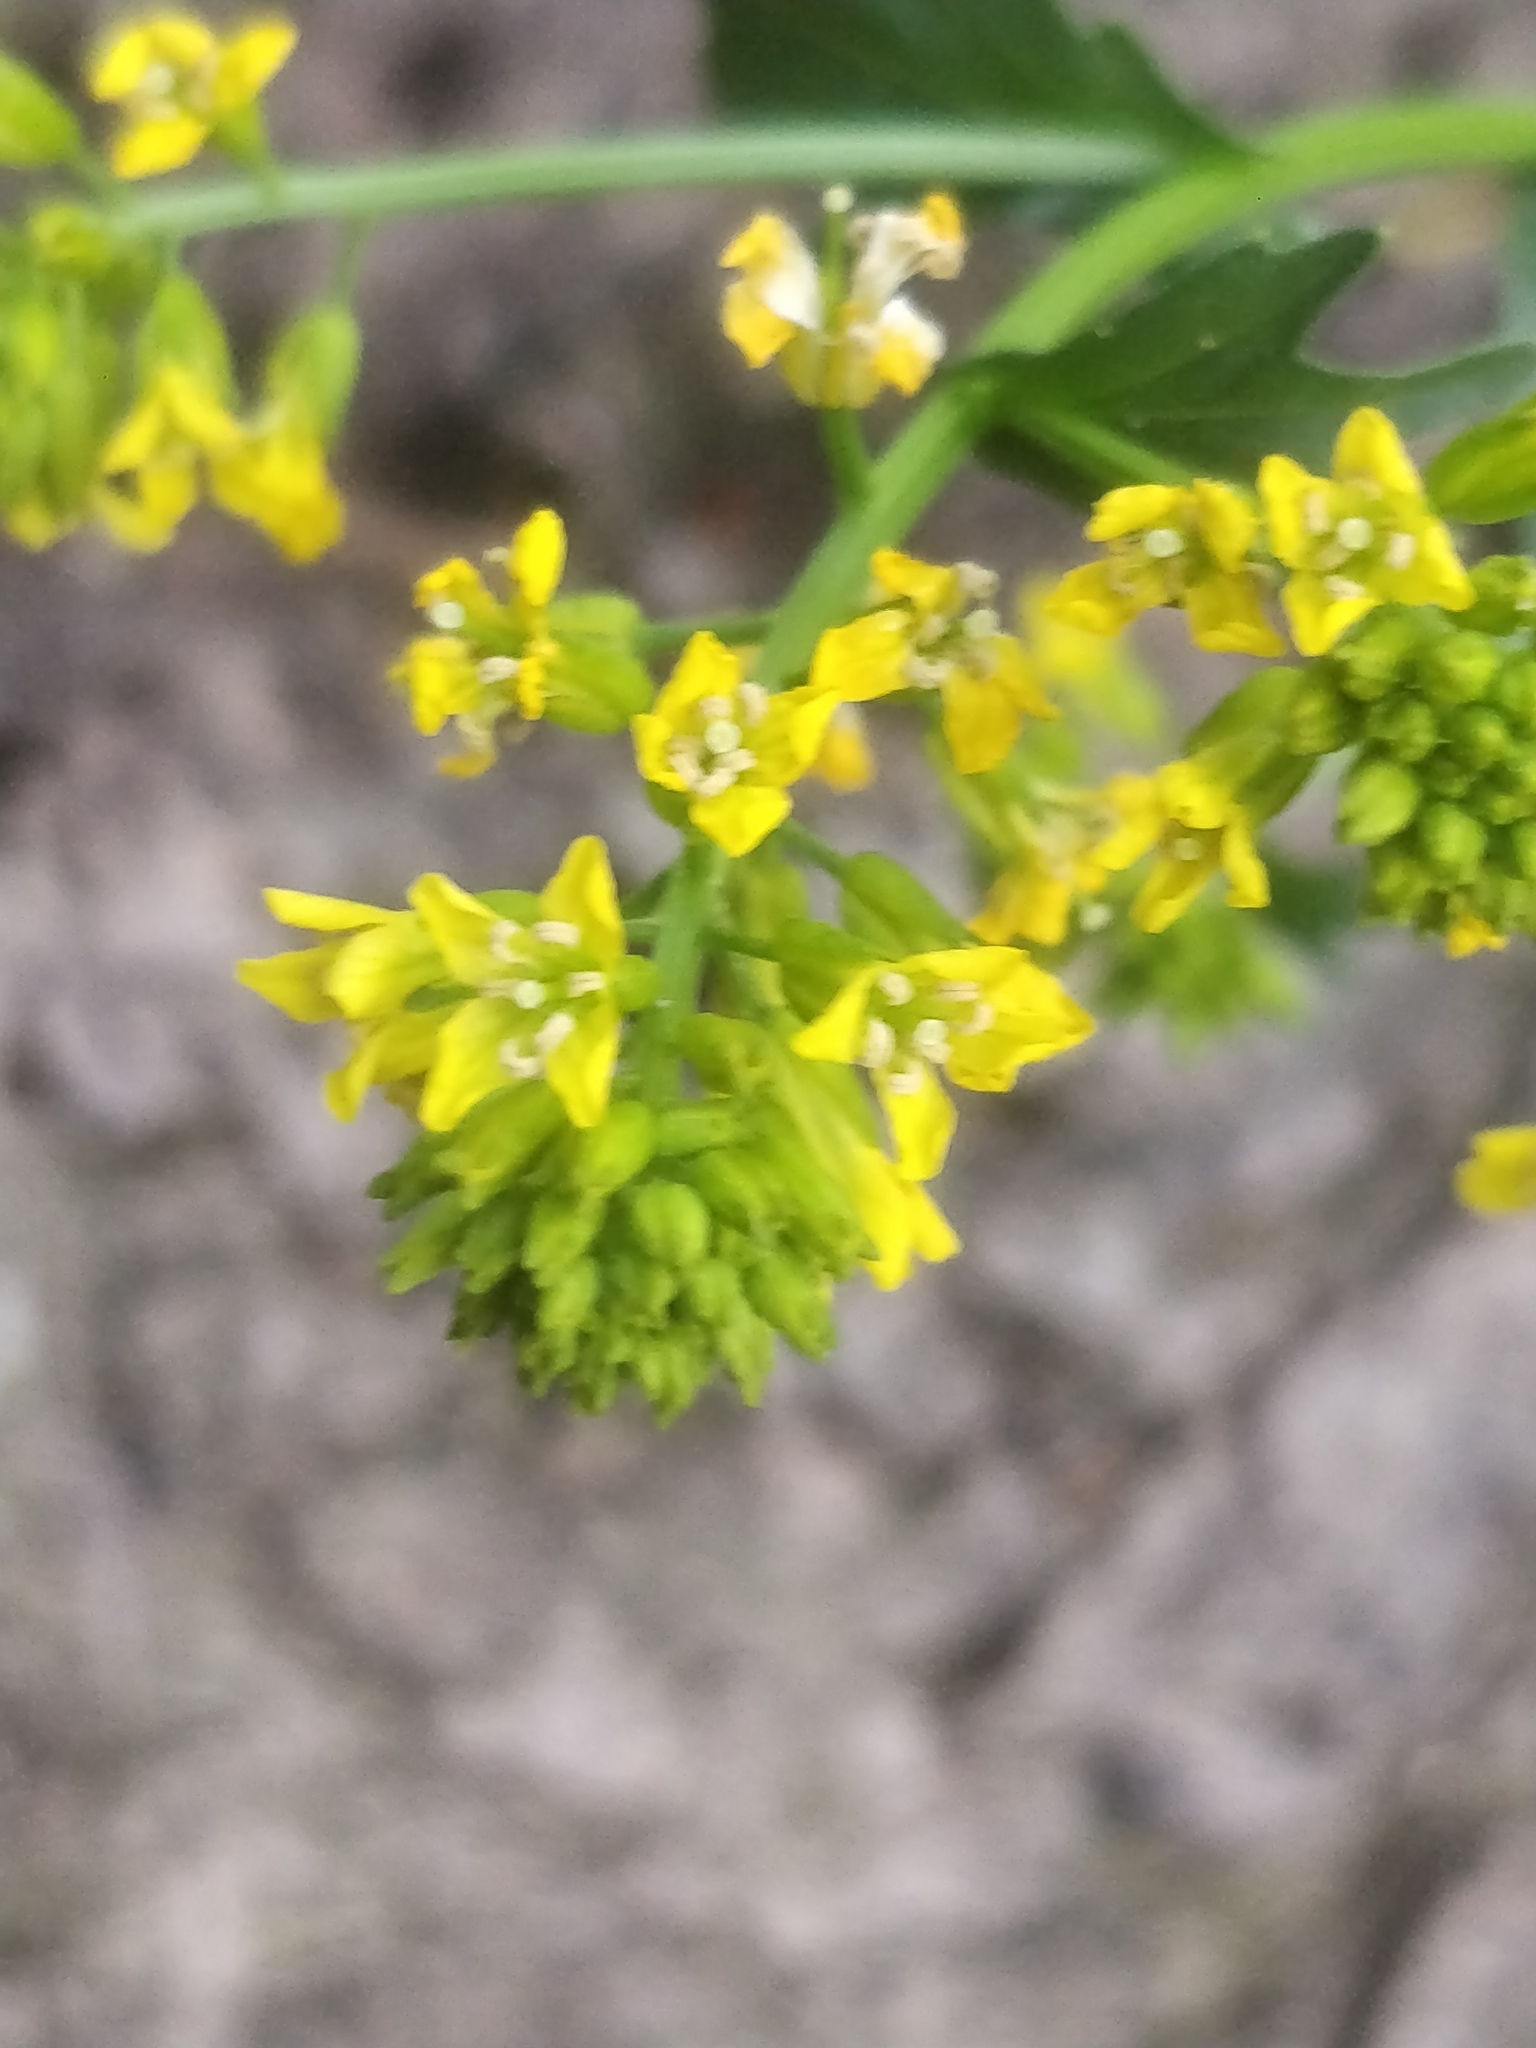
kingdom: Plantae
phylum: Tracheophyta
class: Magnoliopsida
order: Brassicales
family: Brassicaceae
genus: Barbarea
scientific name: Barbarea vulgaris
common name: Cressy-greens
